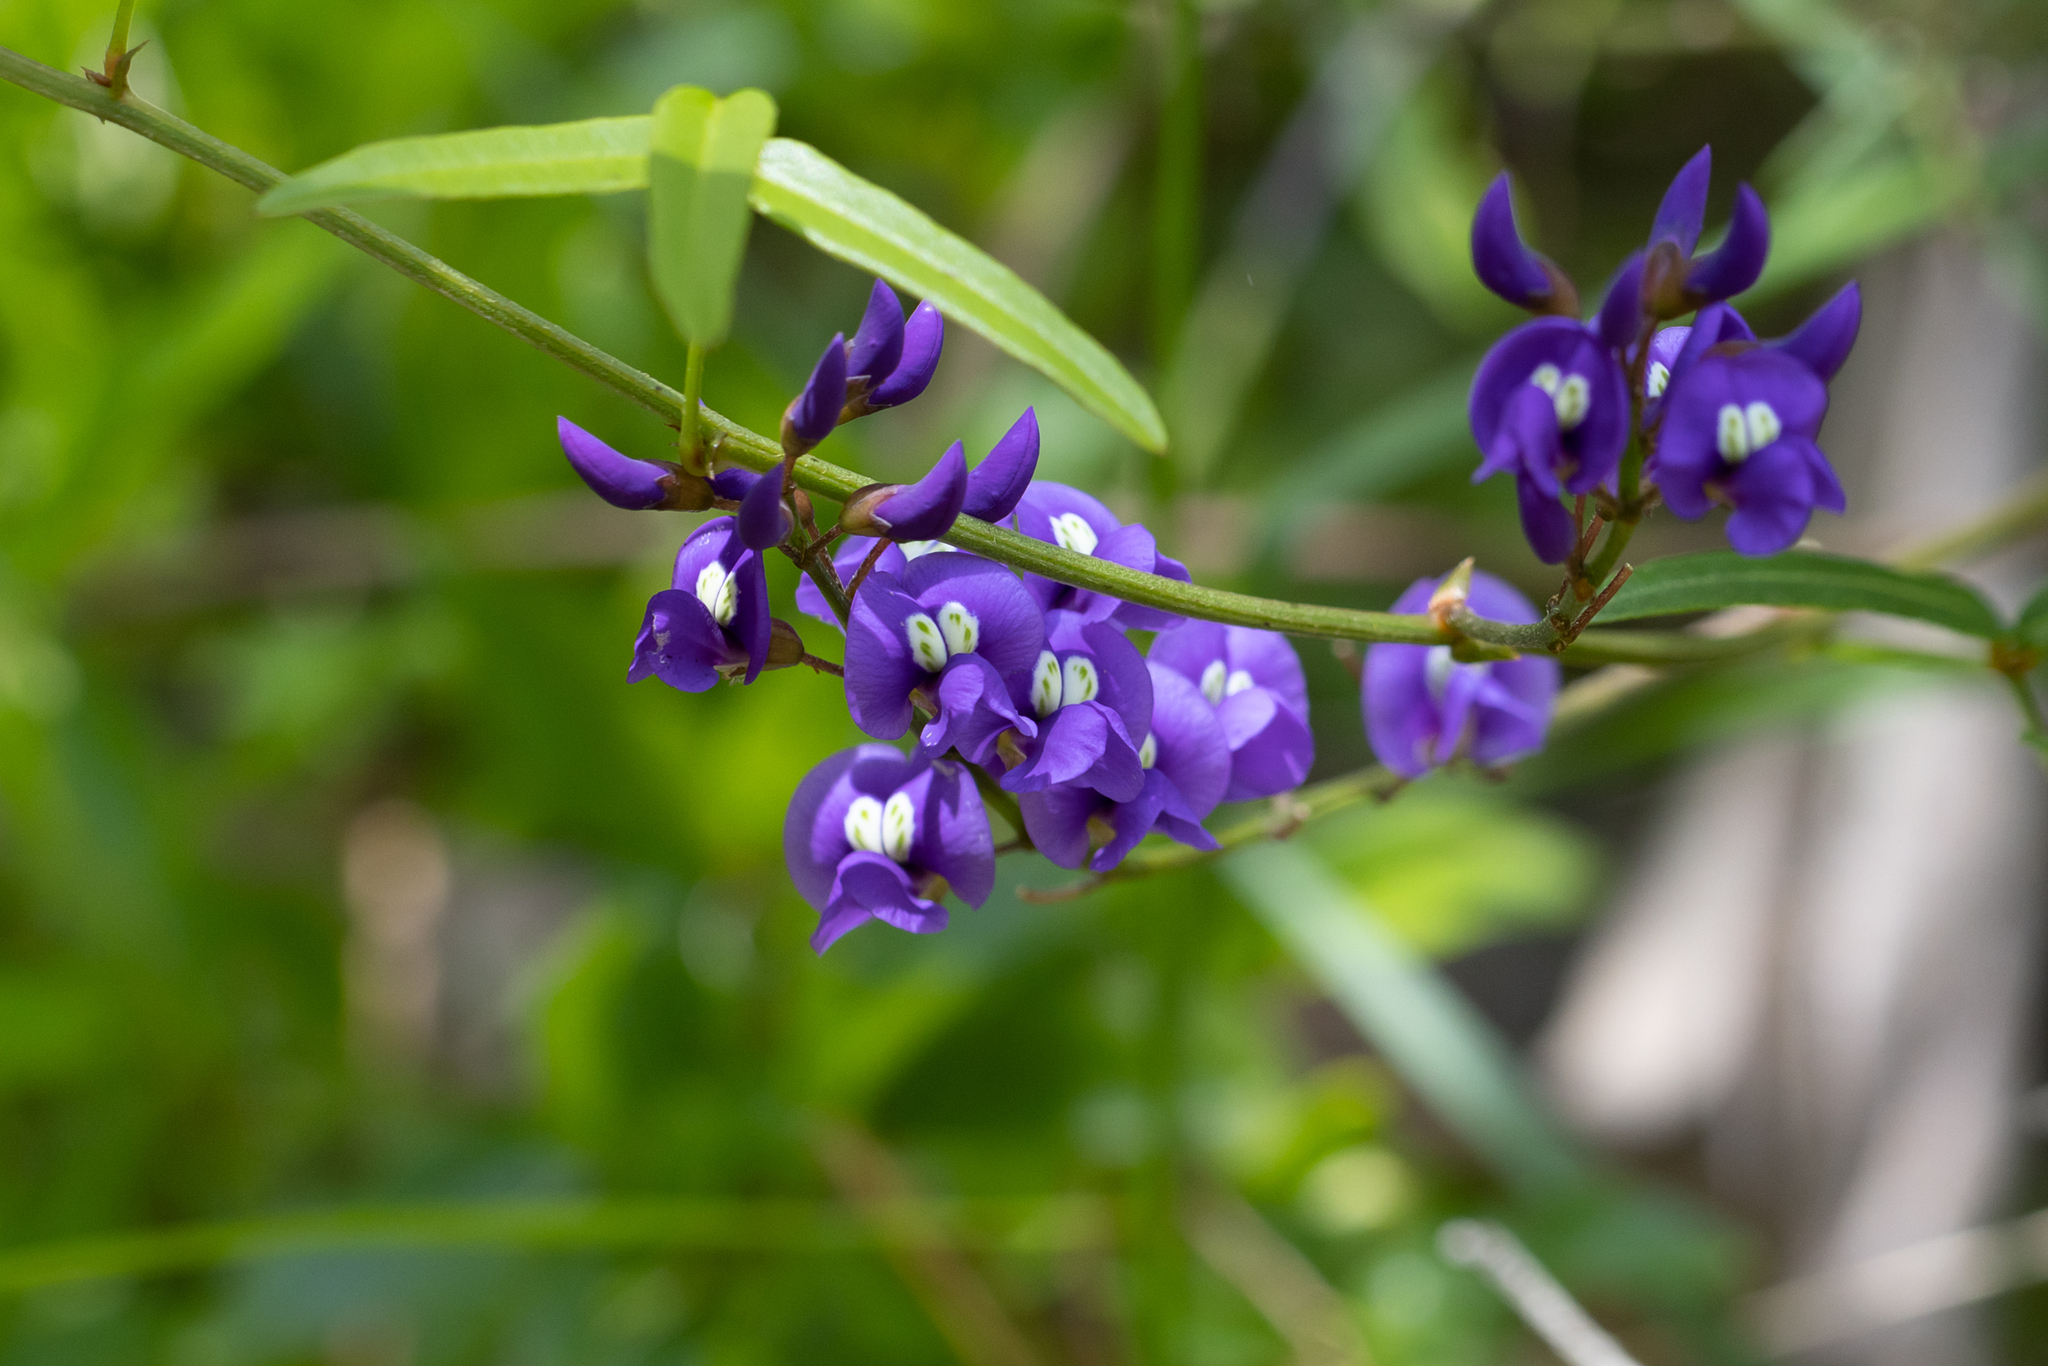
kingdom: Plantae
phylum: Tracheophyta
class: Magnoliopsida
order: Fabales
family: Fabaceae
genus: Hardenbergia
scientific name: Hardenbergia comptoniana
